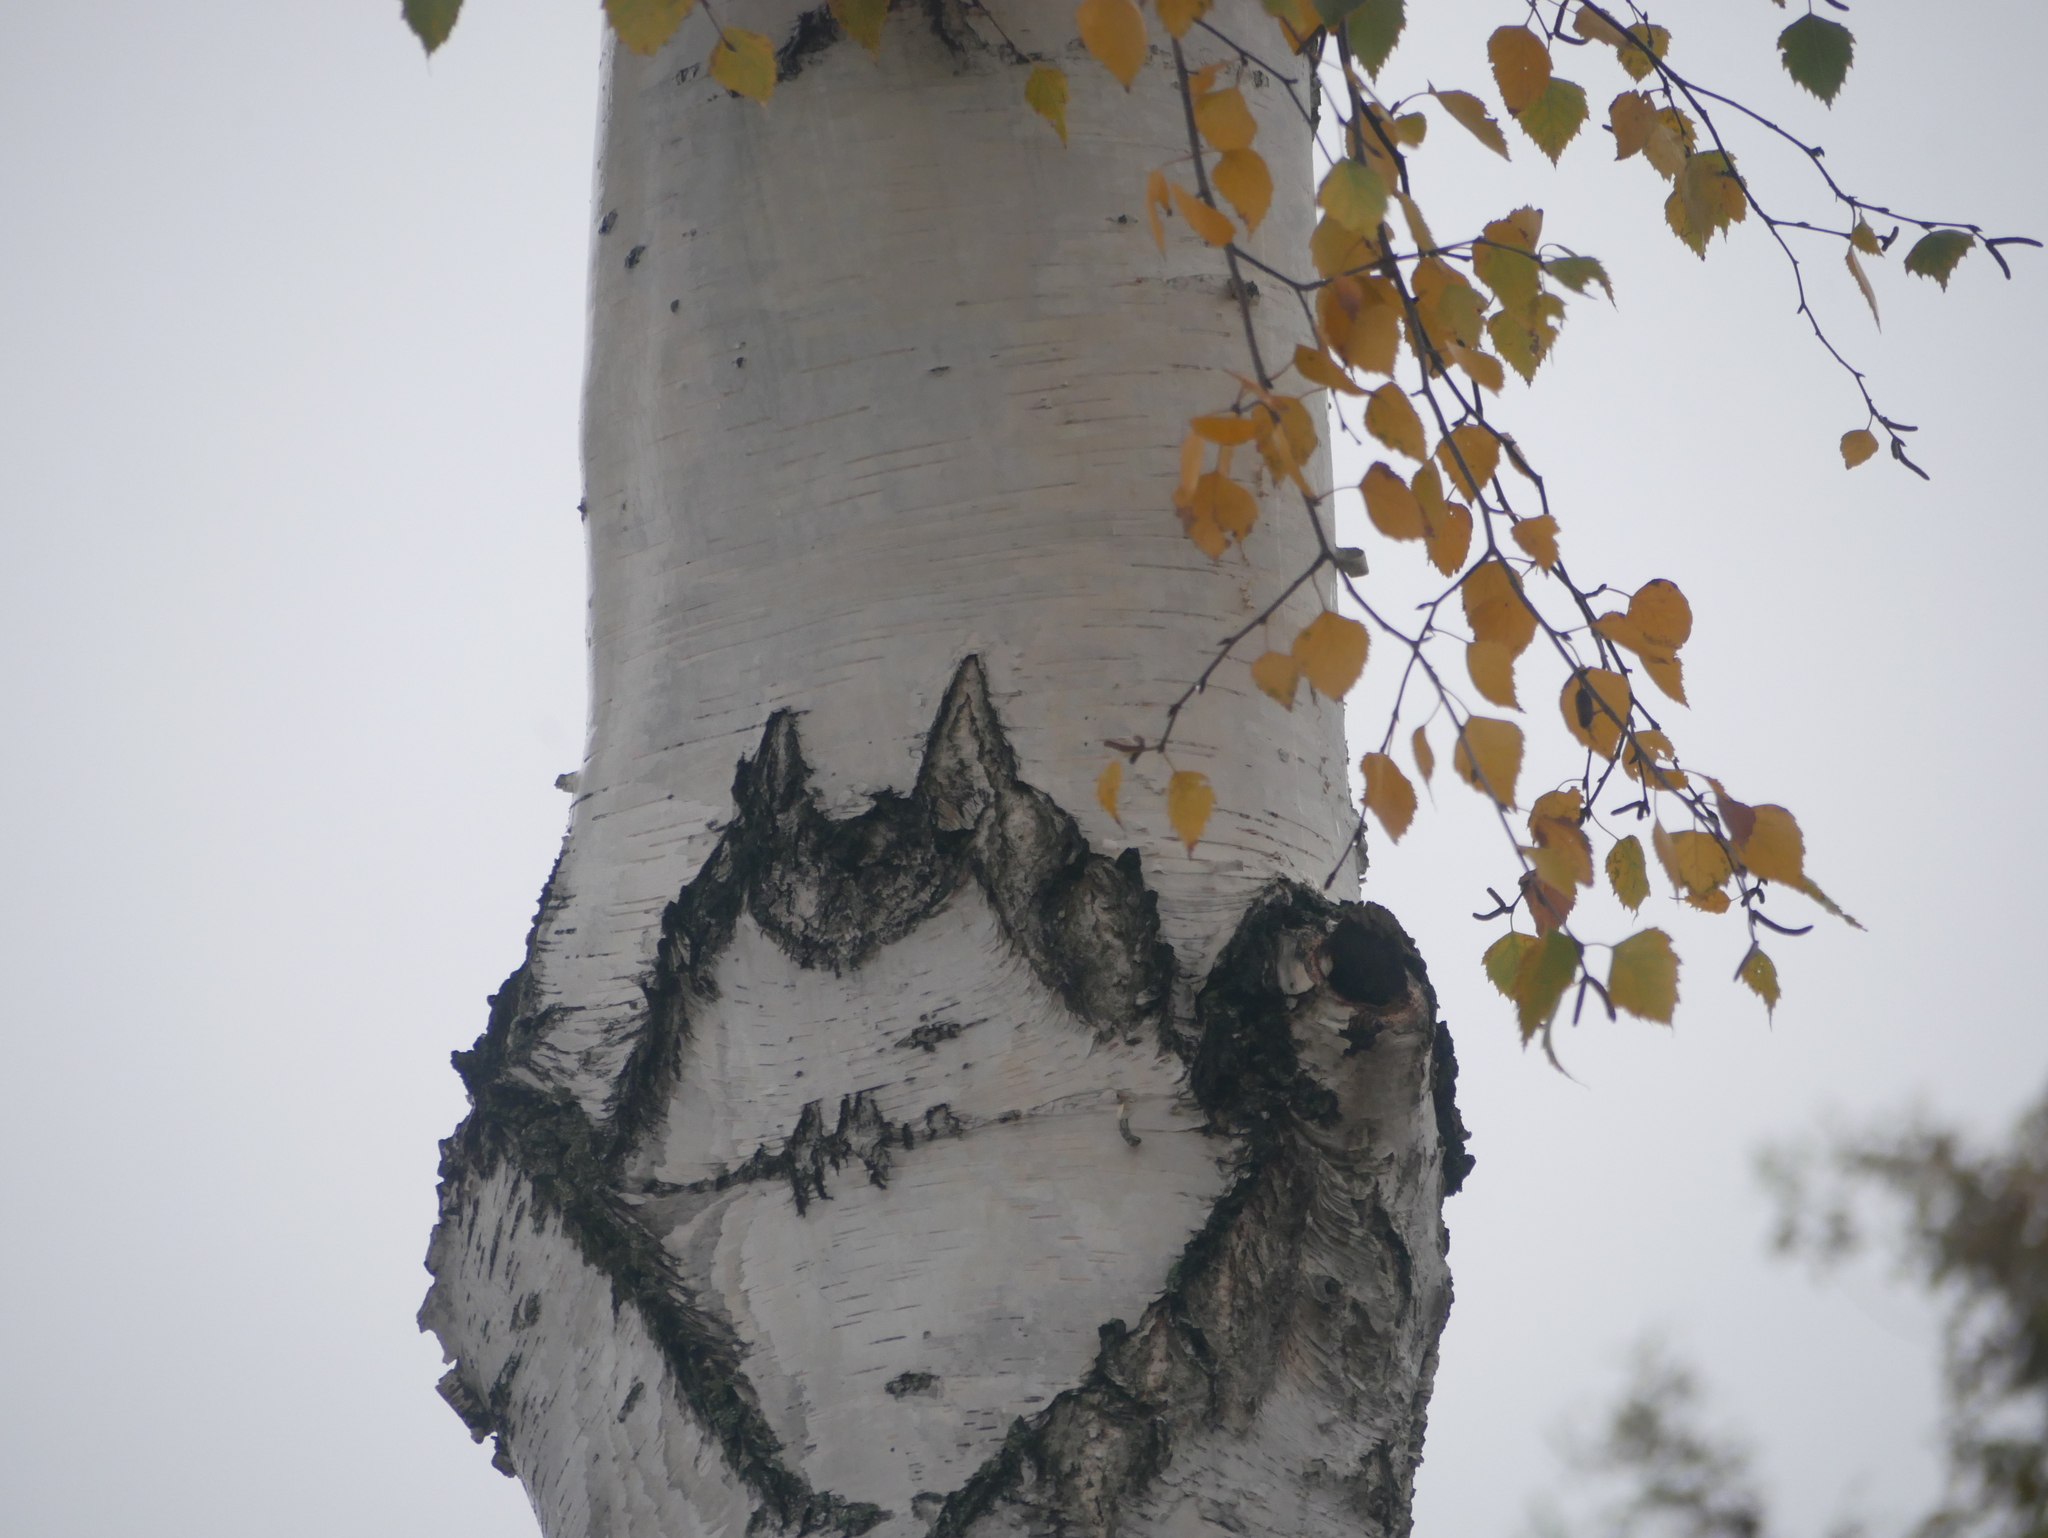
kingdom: Plantae
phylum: Tracheophyta
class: Magnoliopsida
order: Fagales
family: Betulaceae
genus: Betula
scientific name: Betula pendula
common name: Silver birch
